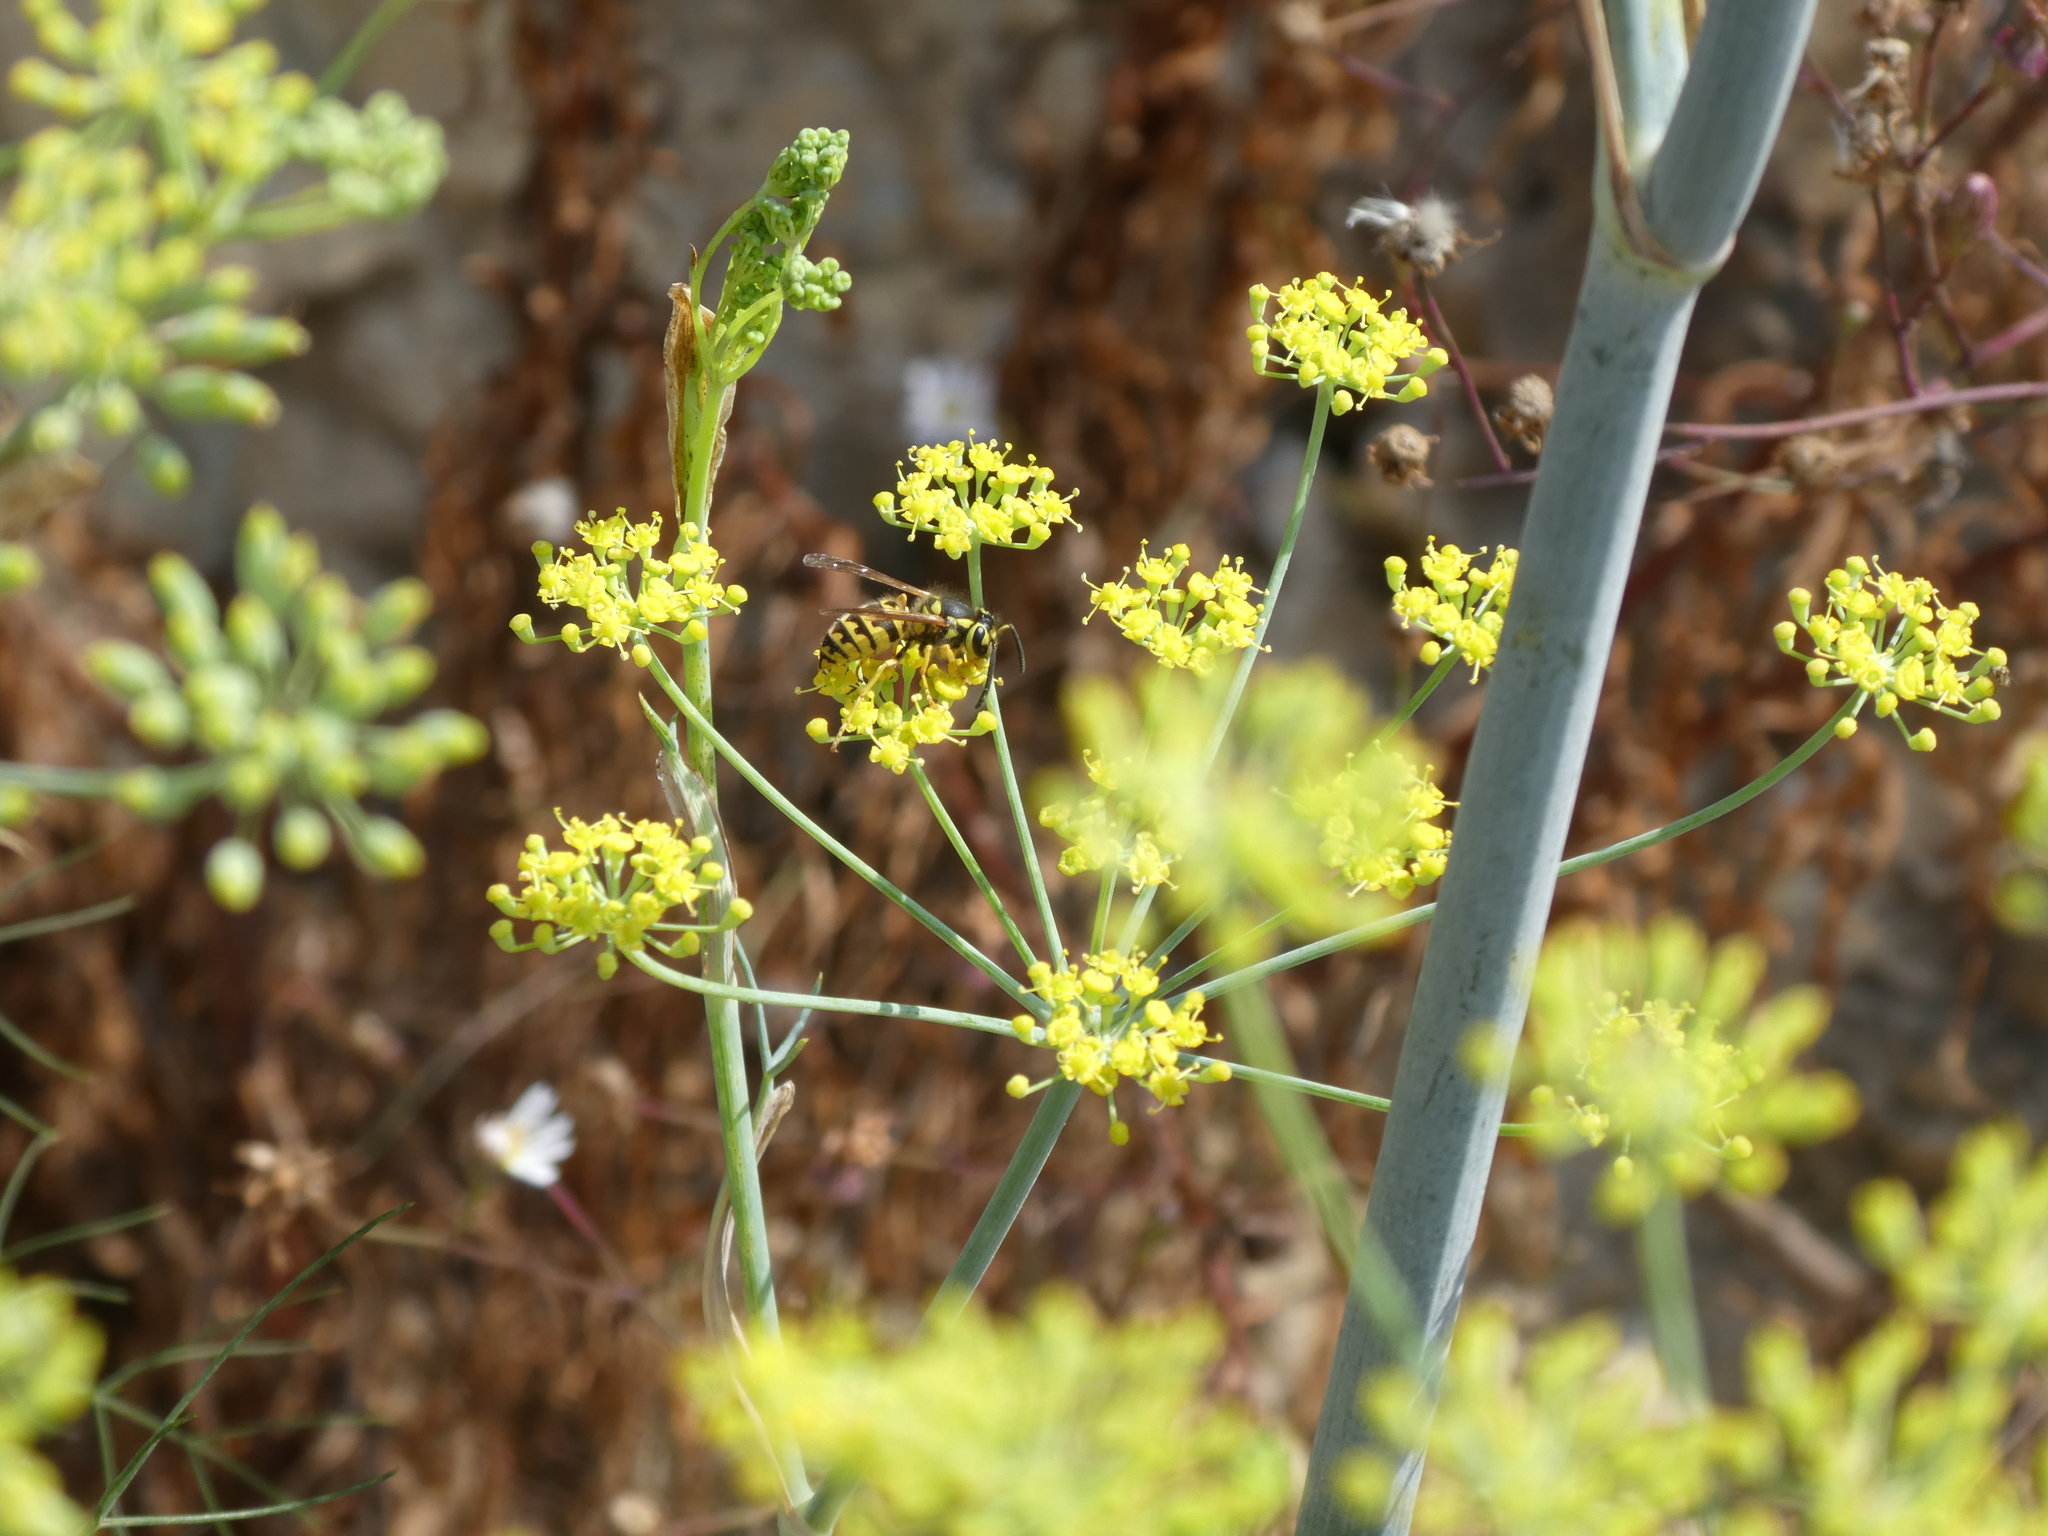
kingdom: Animalia
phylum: Arthropoda
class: Insecta
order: Hymenoptera
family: Vespidae
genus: Vespula
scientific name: Vespula pensylvanica
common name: Western yellowjacket
